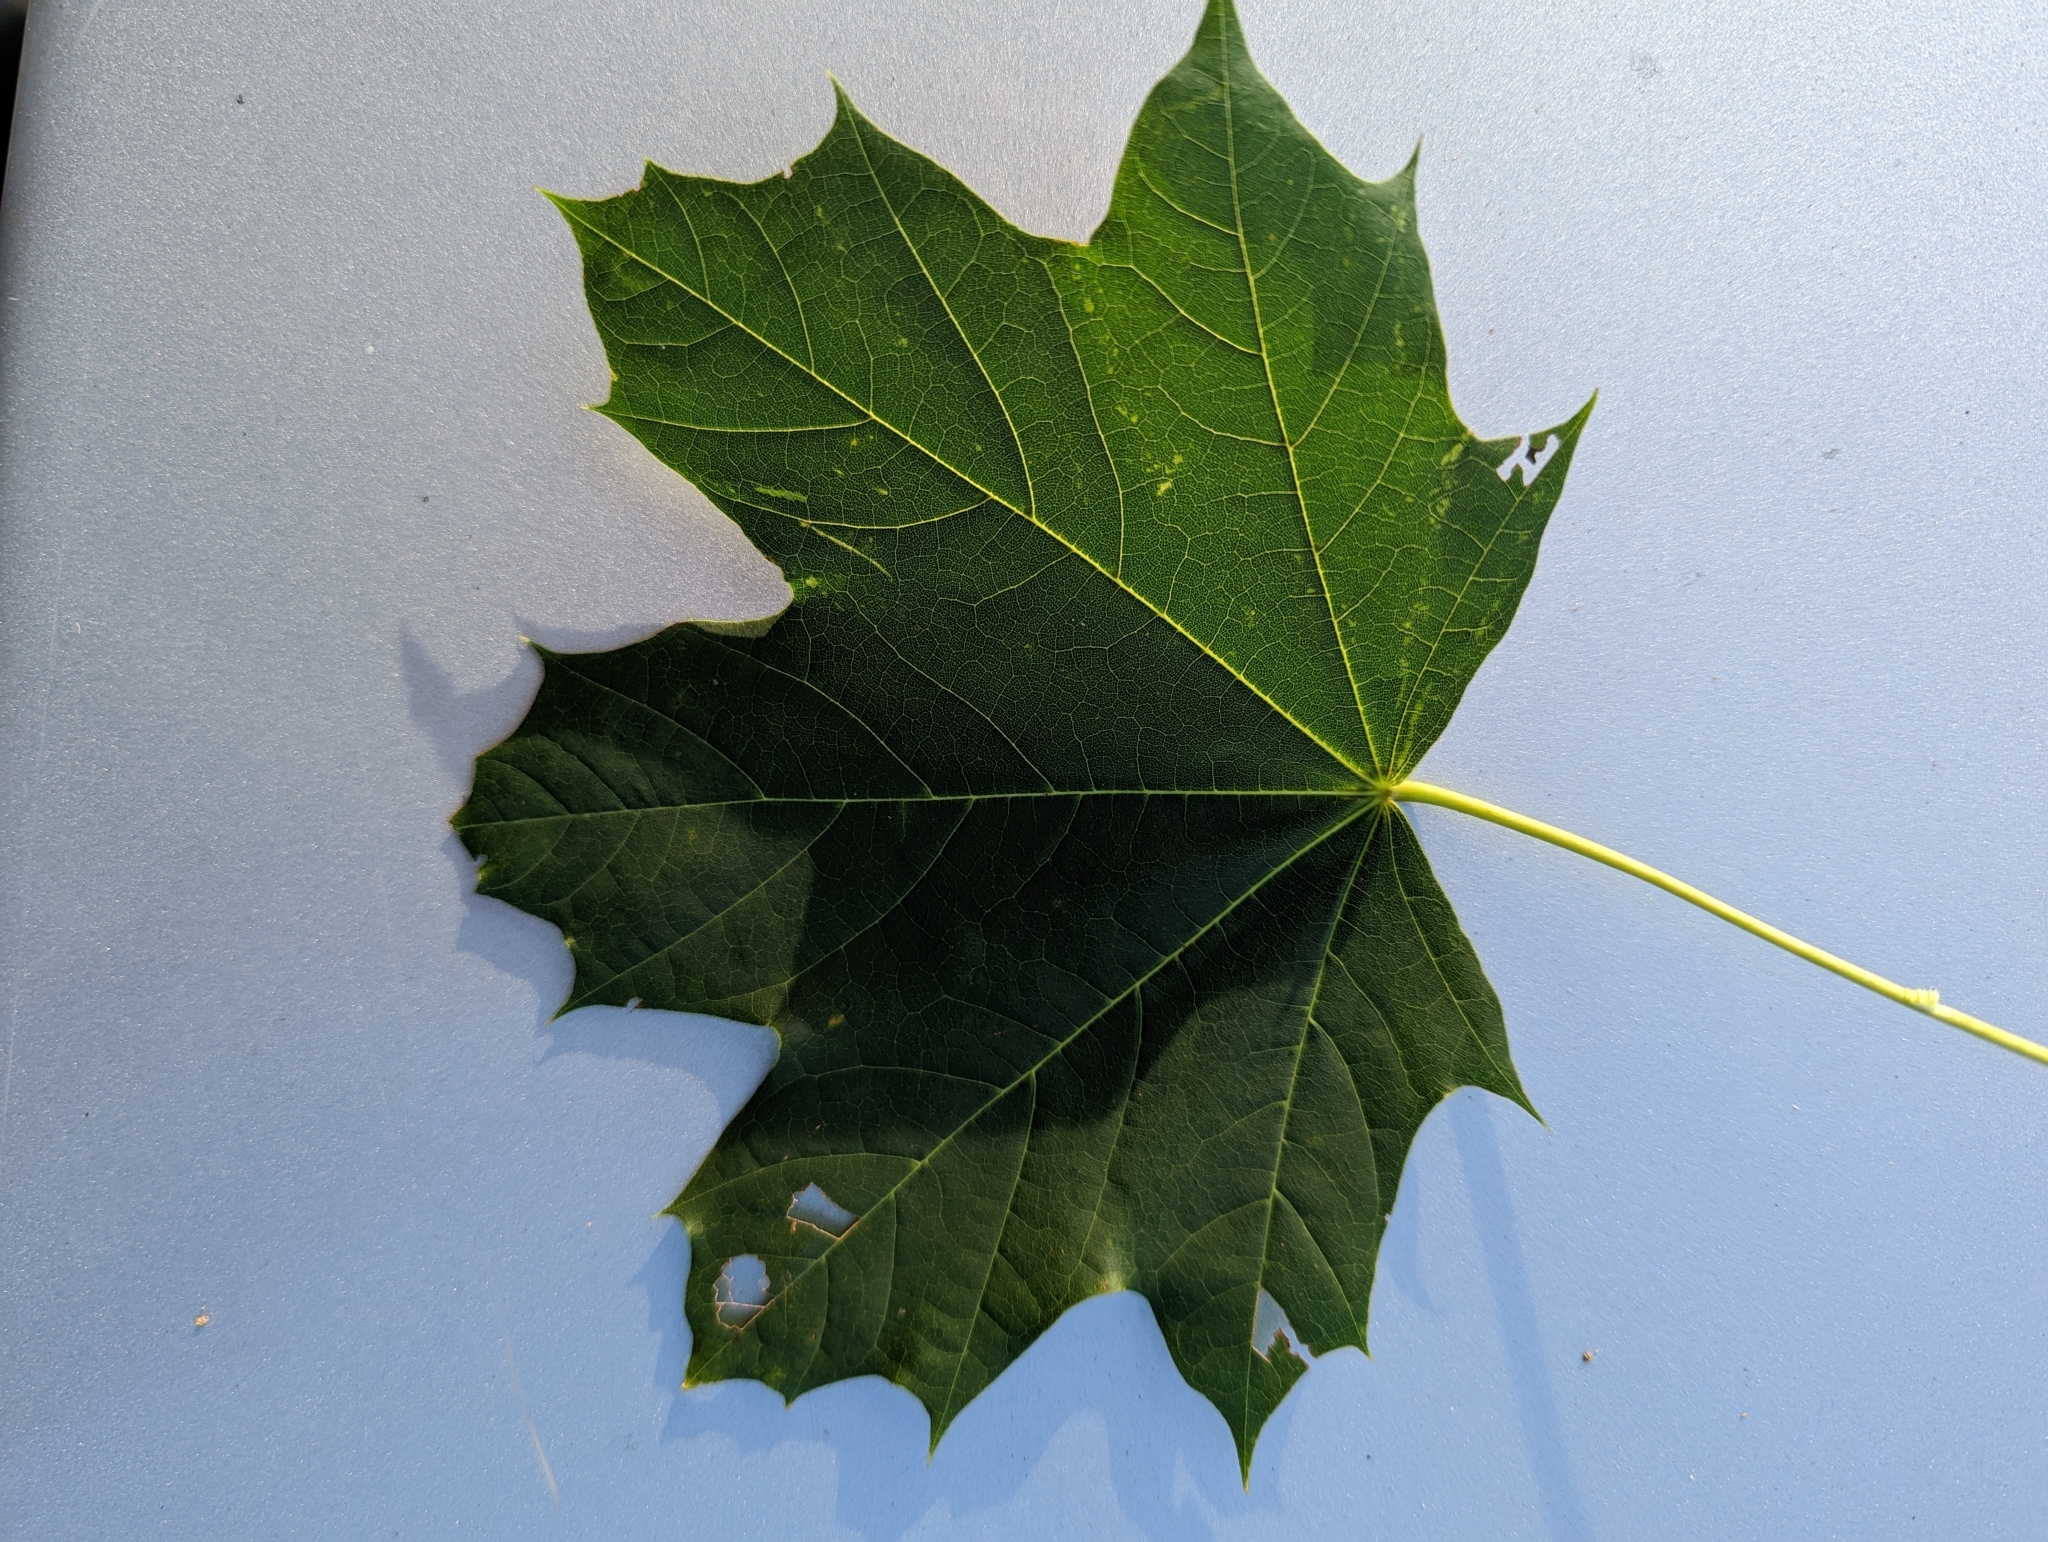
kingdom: Plantae
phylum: Tracheophyta
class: Magnoliopsida
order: Sapindales
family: Sapindaceae
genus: Acer
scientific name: Acer platanoides
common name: Norway maple
